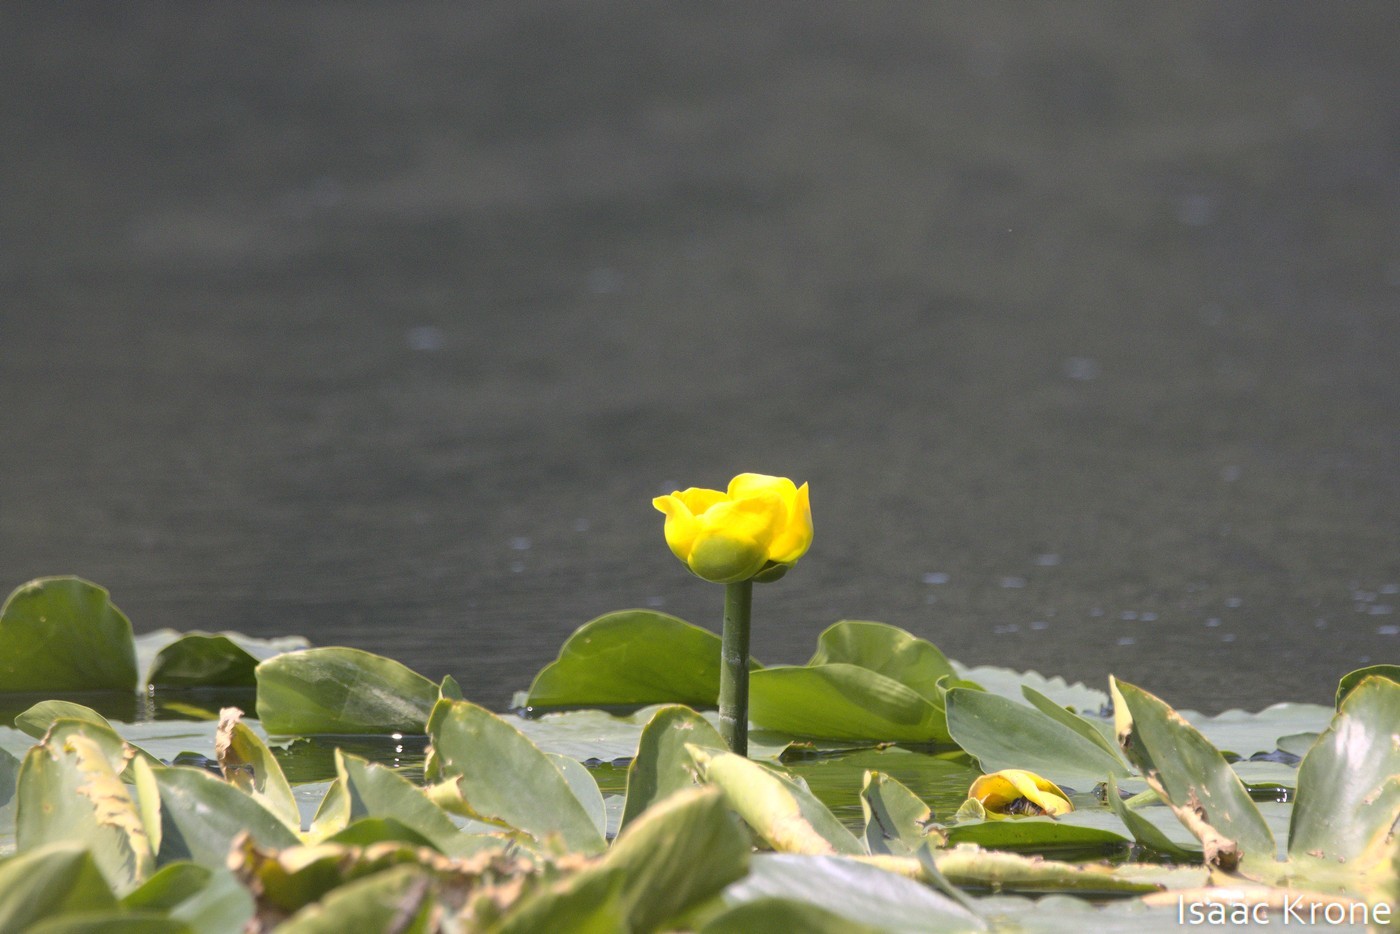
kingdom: Plantae
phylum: Tracheophyta
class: Magnoliopsida
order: Nymphaeales
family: Nymphaeaceae
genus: Nuphar
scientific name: Nuphar polysepala
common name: Rocky mountain cow-lily
